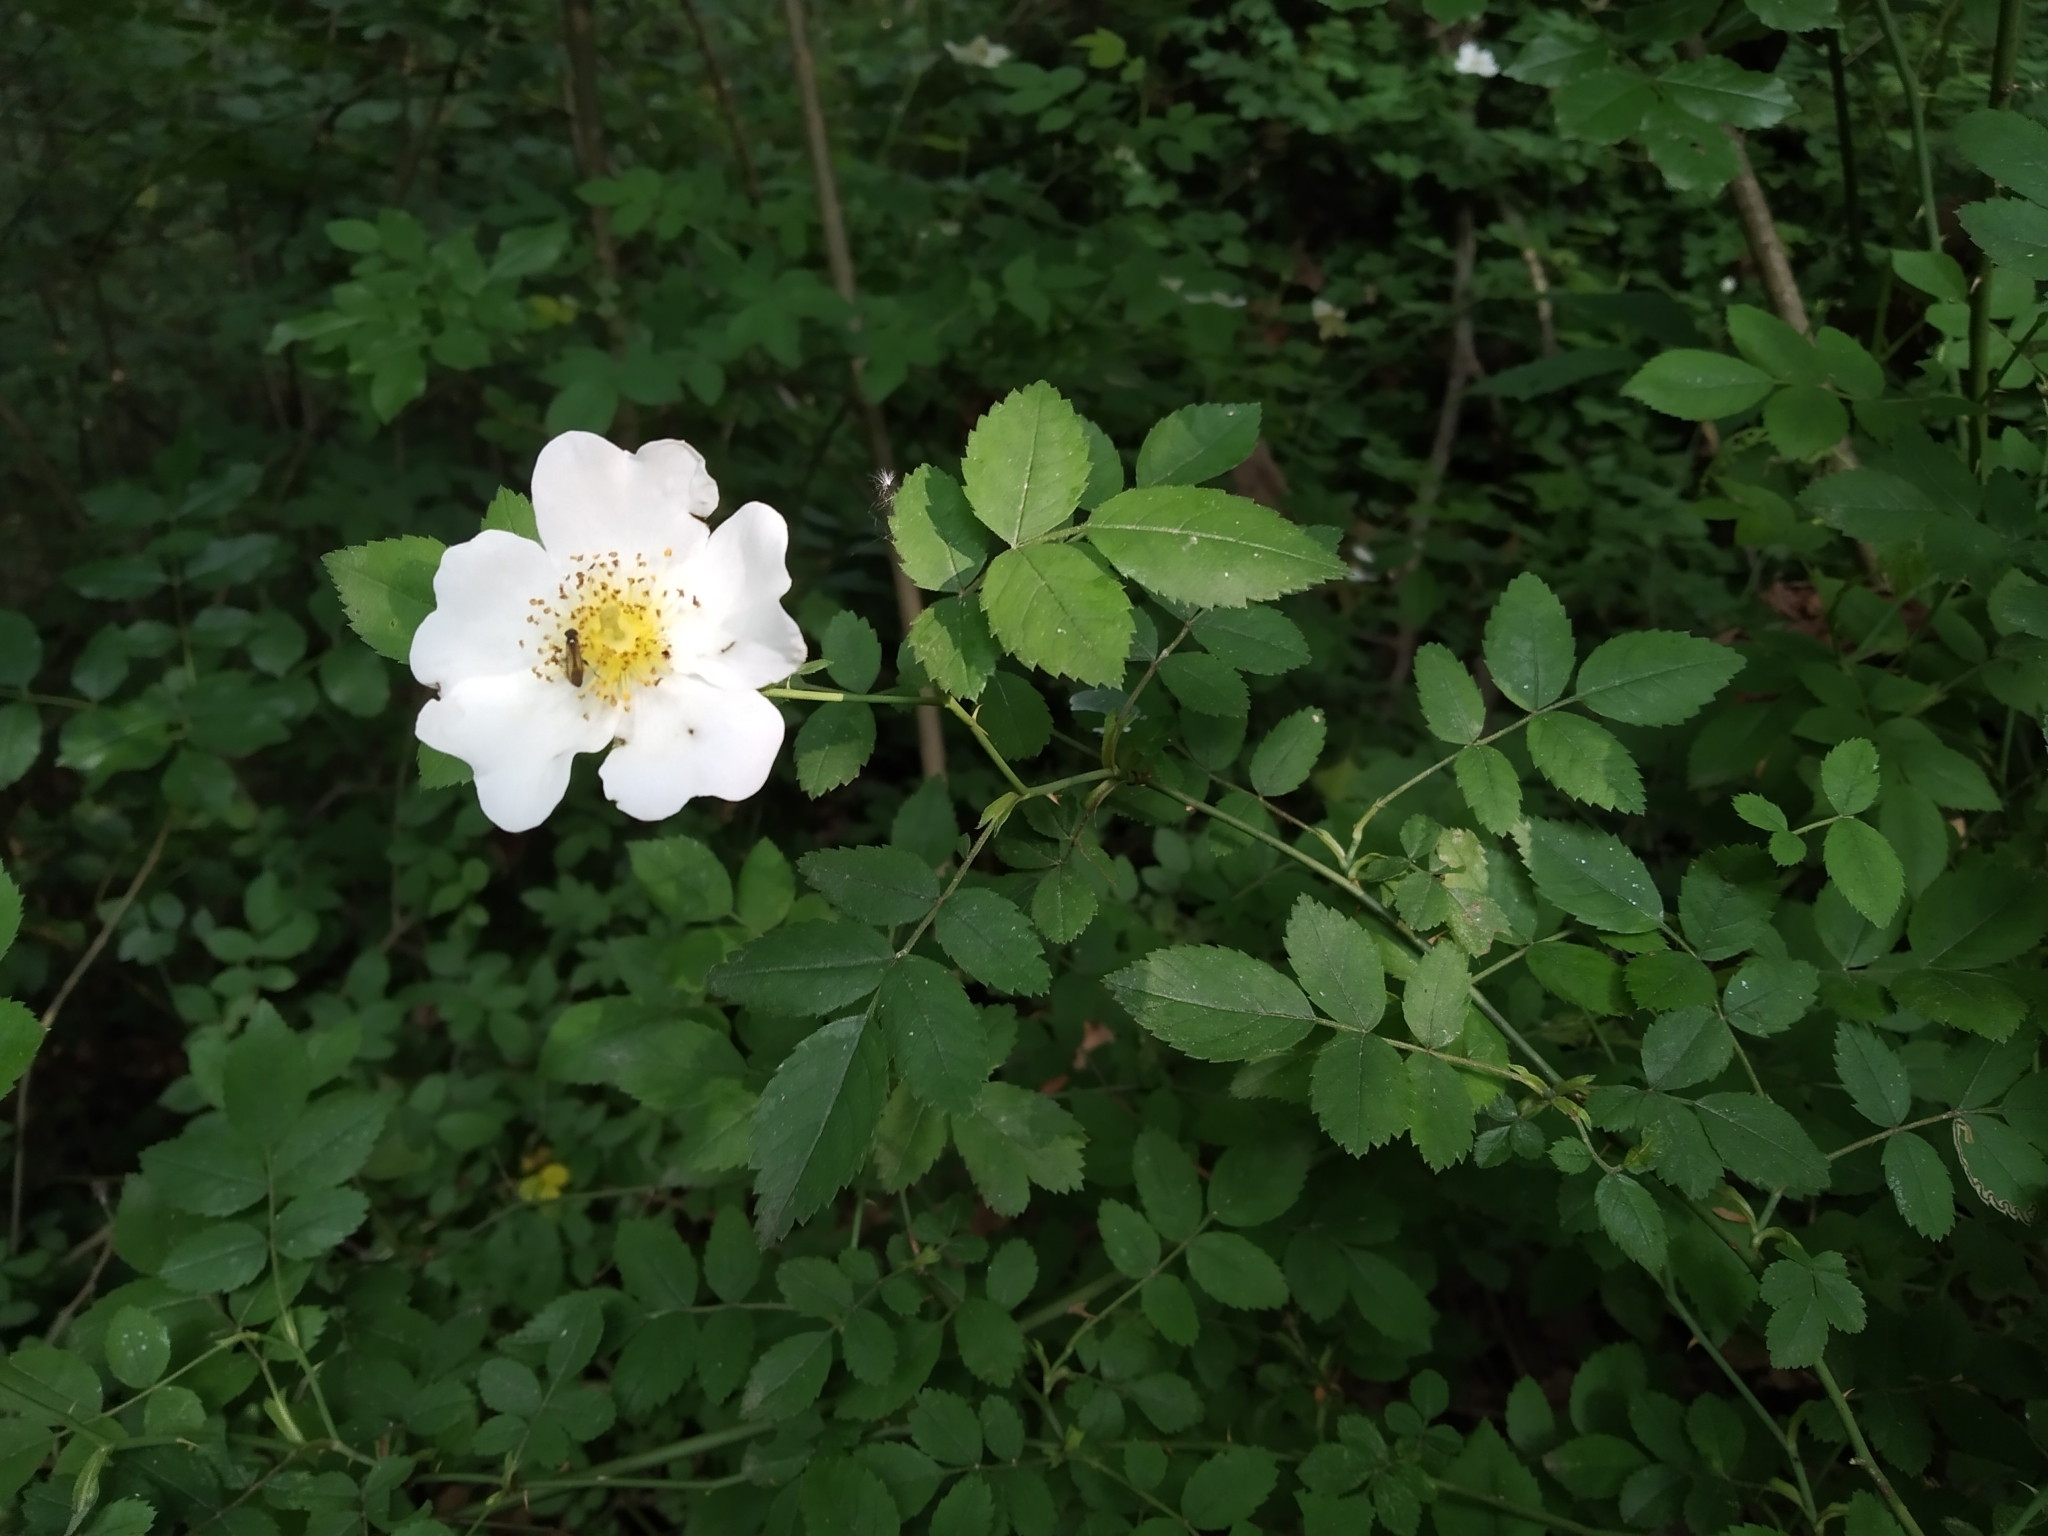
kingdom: Plantae
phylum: Tracheophyta
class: Magnoliopsida
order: Rosales
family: Rosaceae
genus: Rosa
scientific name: Rosa multiflora
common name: Multiflora rose
